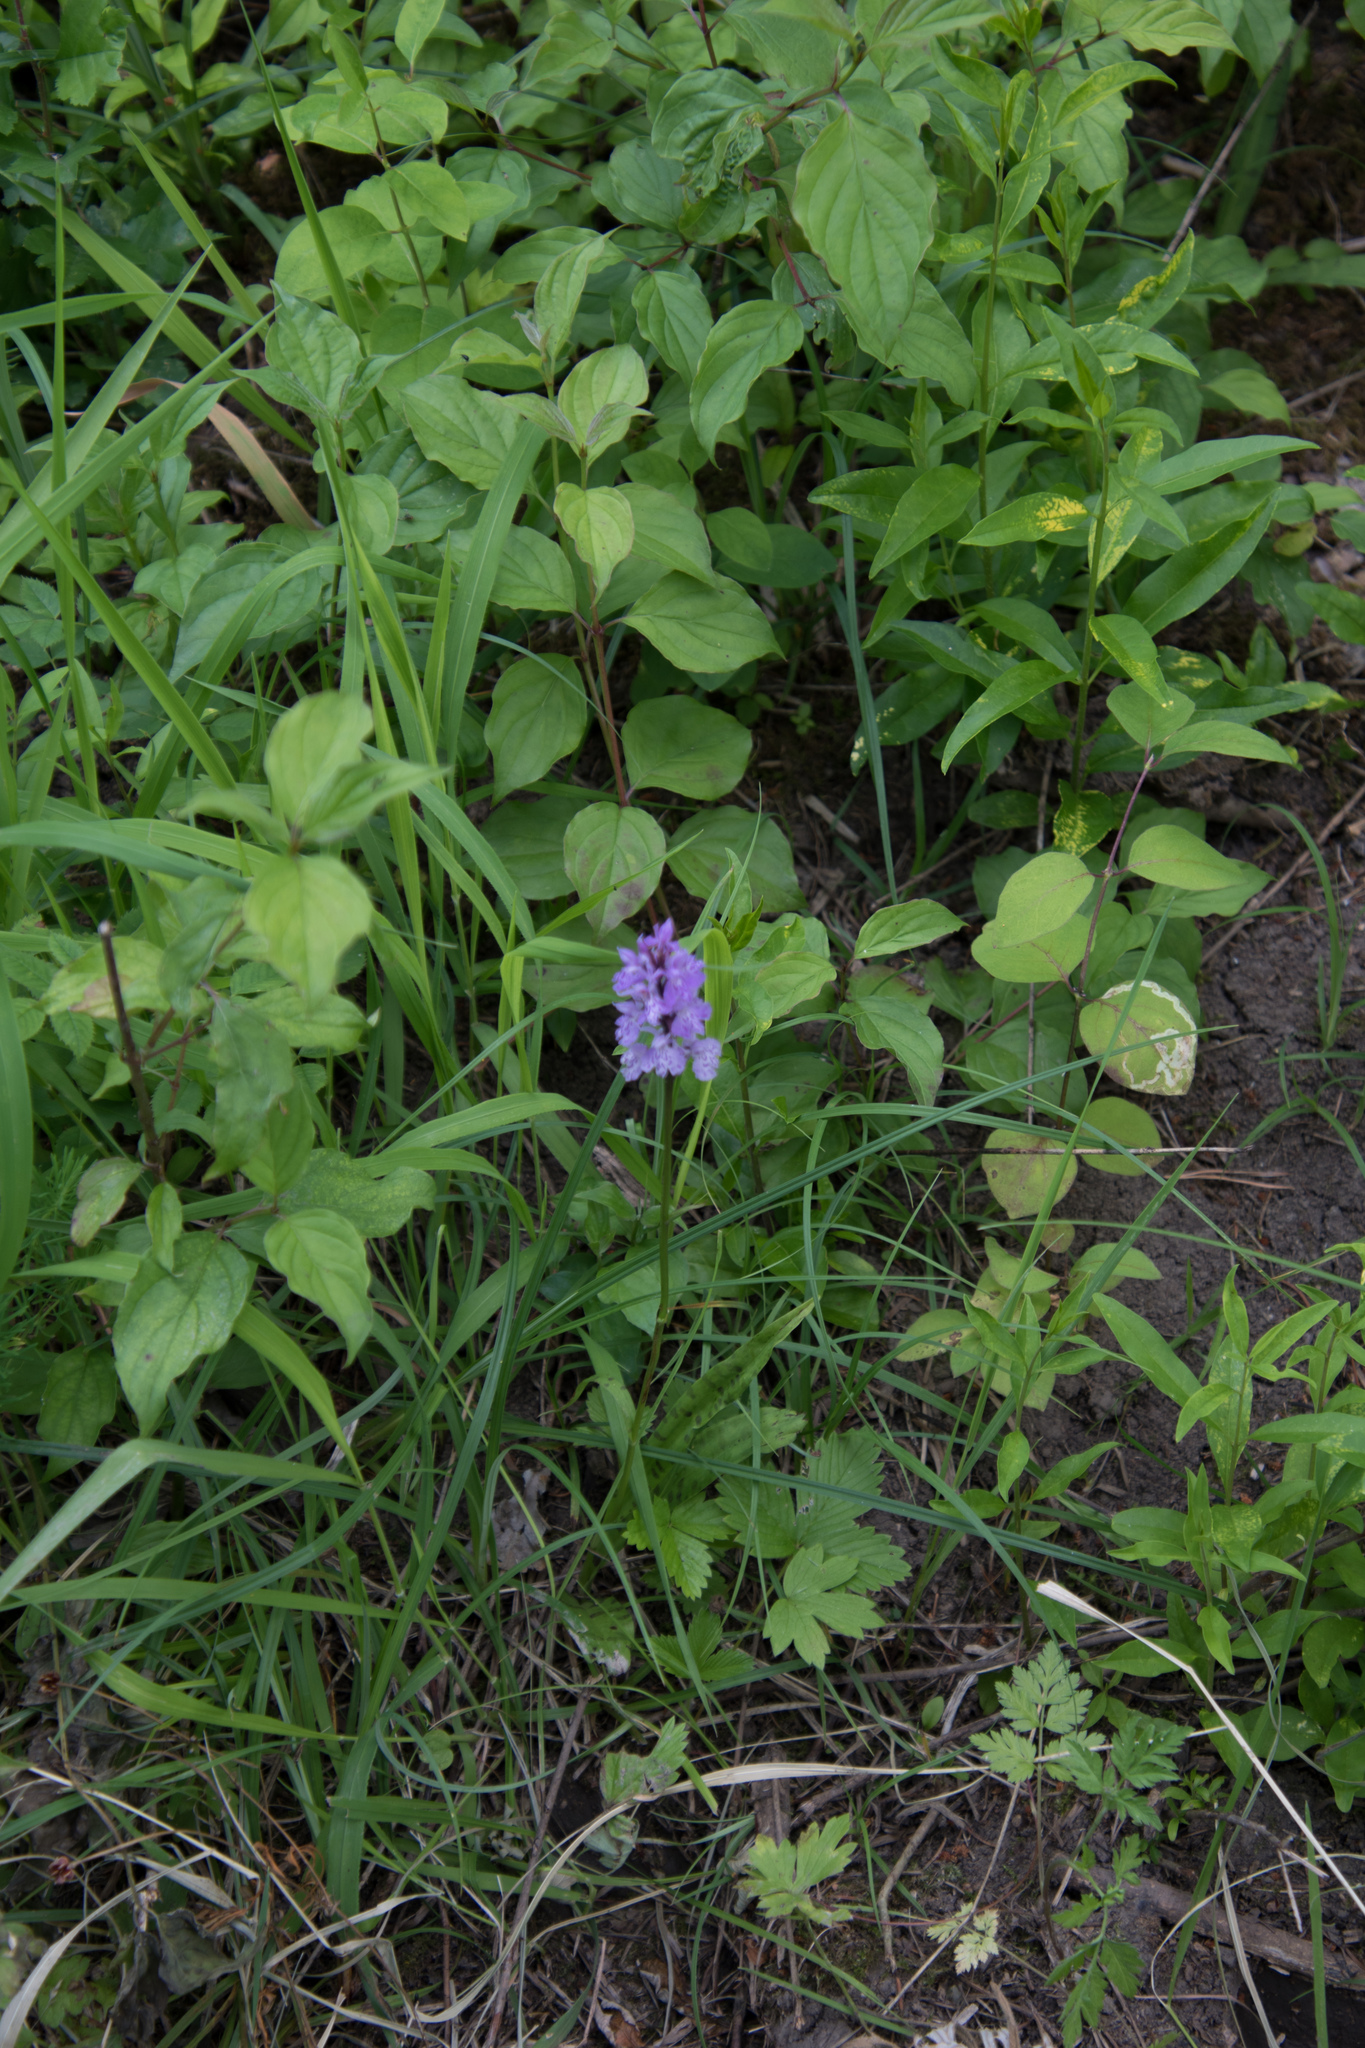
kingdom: Plantae
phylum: Tracheophyta
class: Liliopsida
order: Asparagales
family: Orchidaceae
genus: Dactylorhiza
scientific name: Dactylorhiza maculata
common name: Heath spotted-orchid
